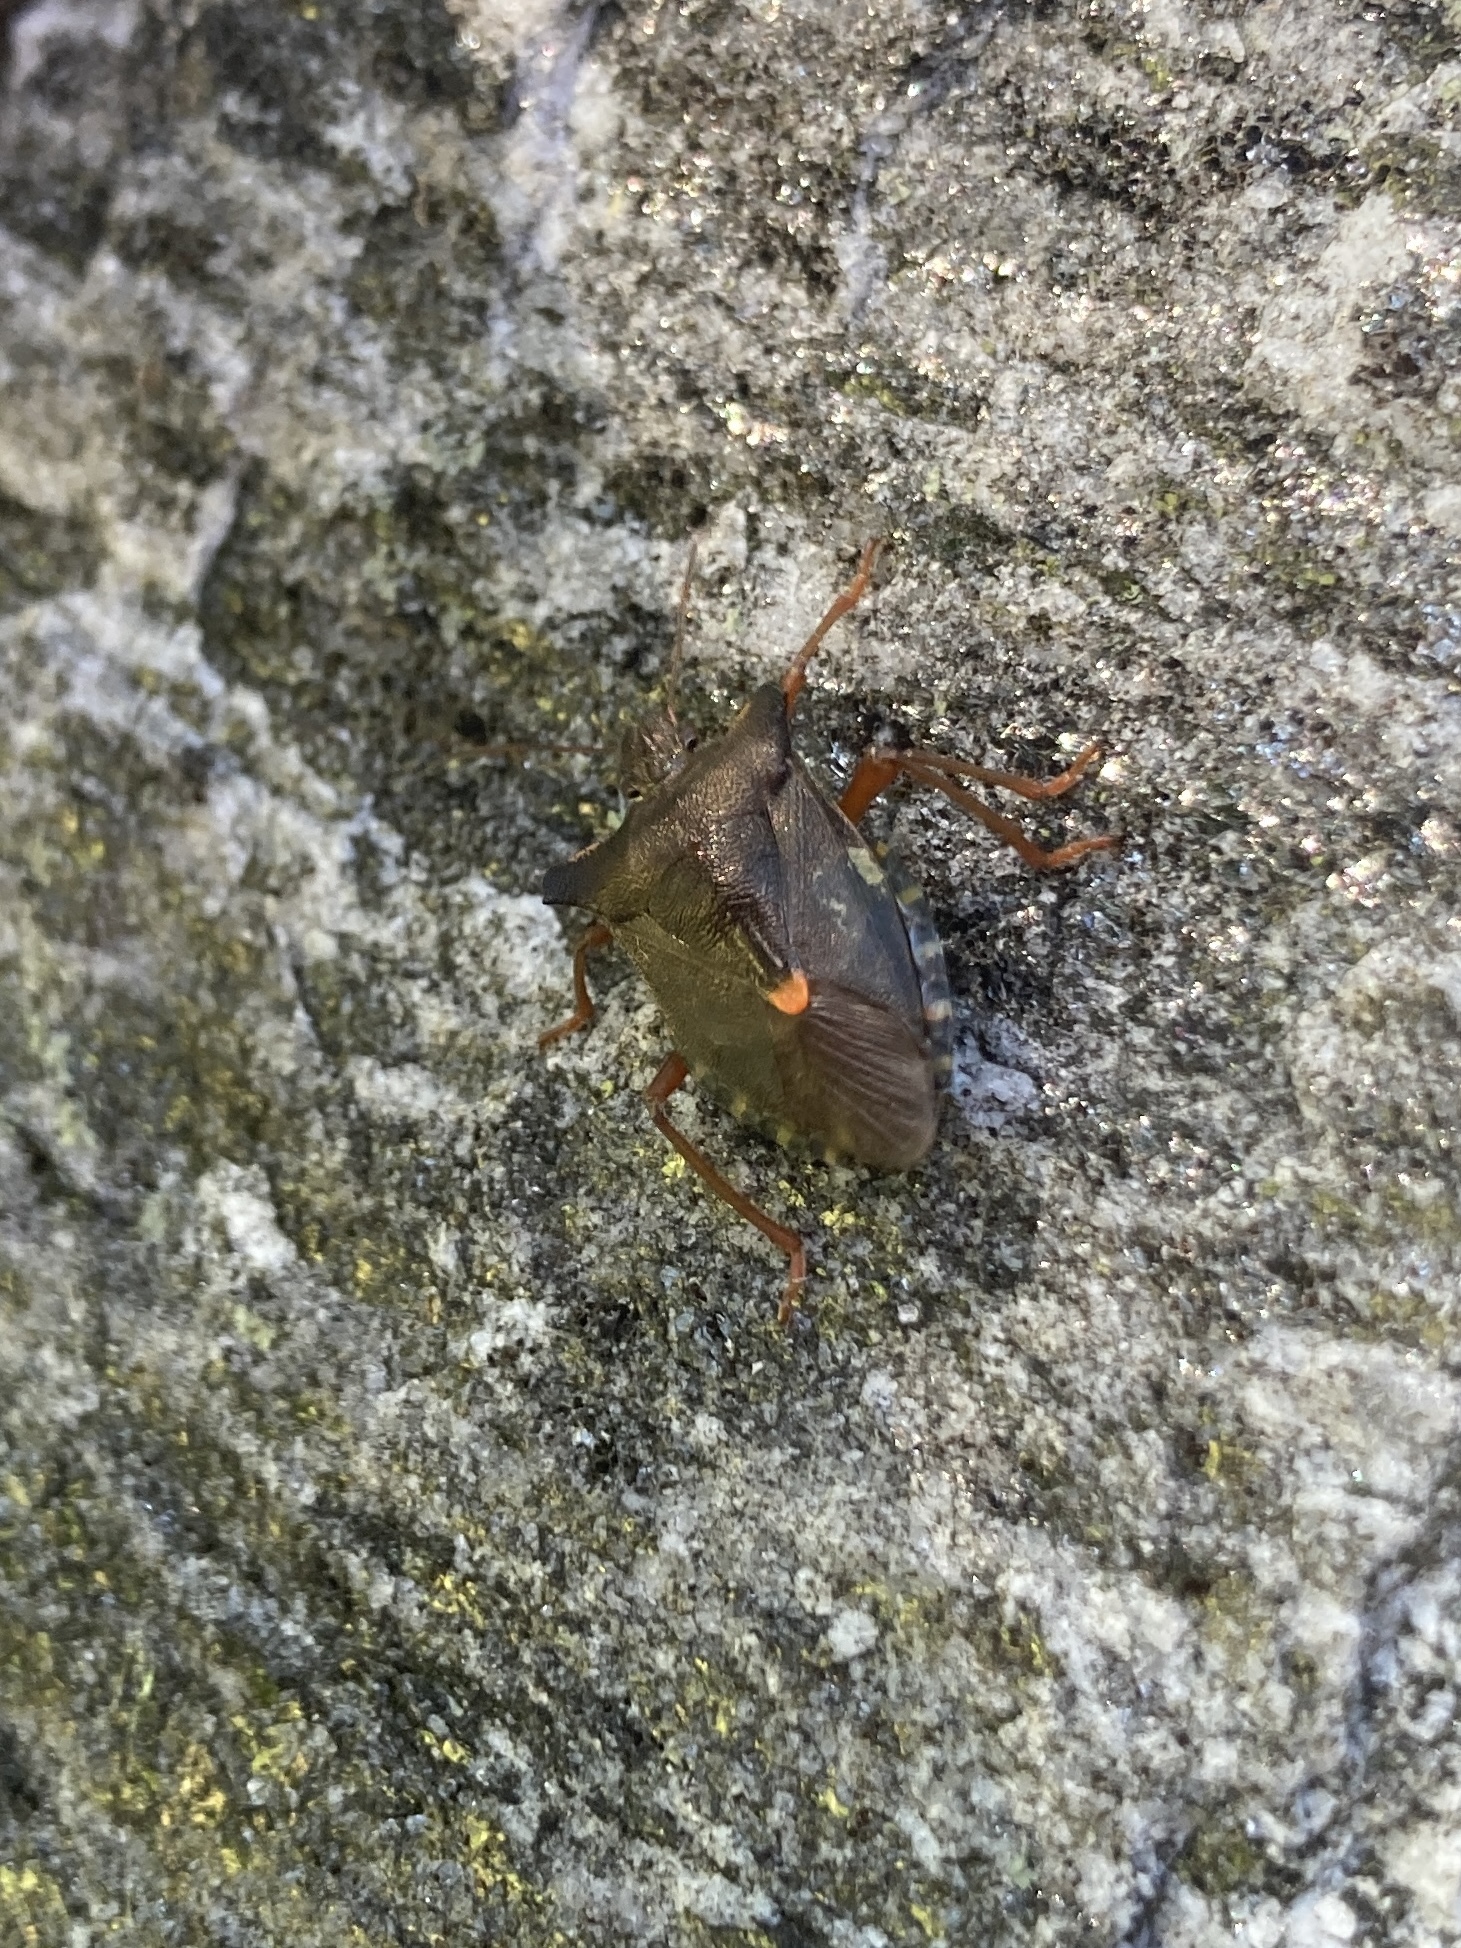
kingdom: Animalia
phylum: Arthropoda
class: Insecta
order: Hemiptera
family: Pentatomidae
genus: Pentatoma
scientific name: Pentatoma rufipes
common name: Forest bug
